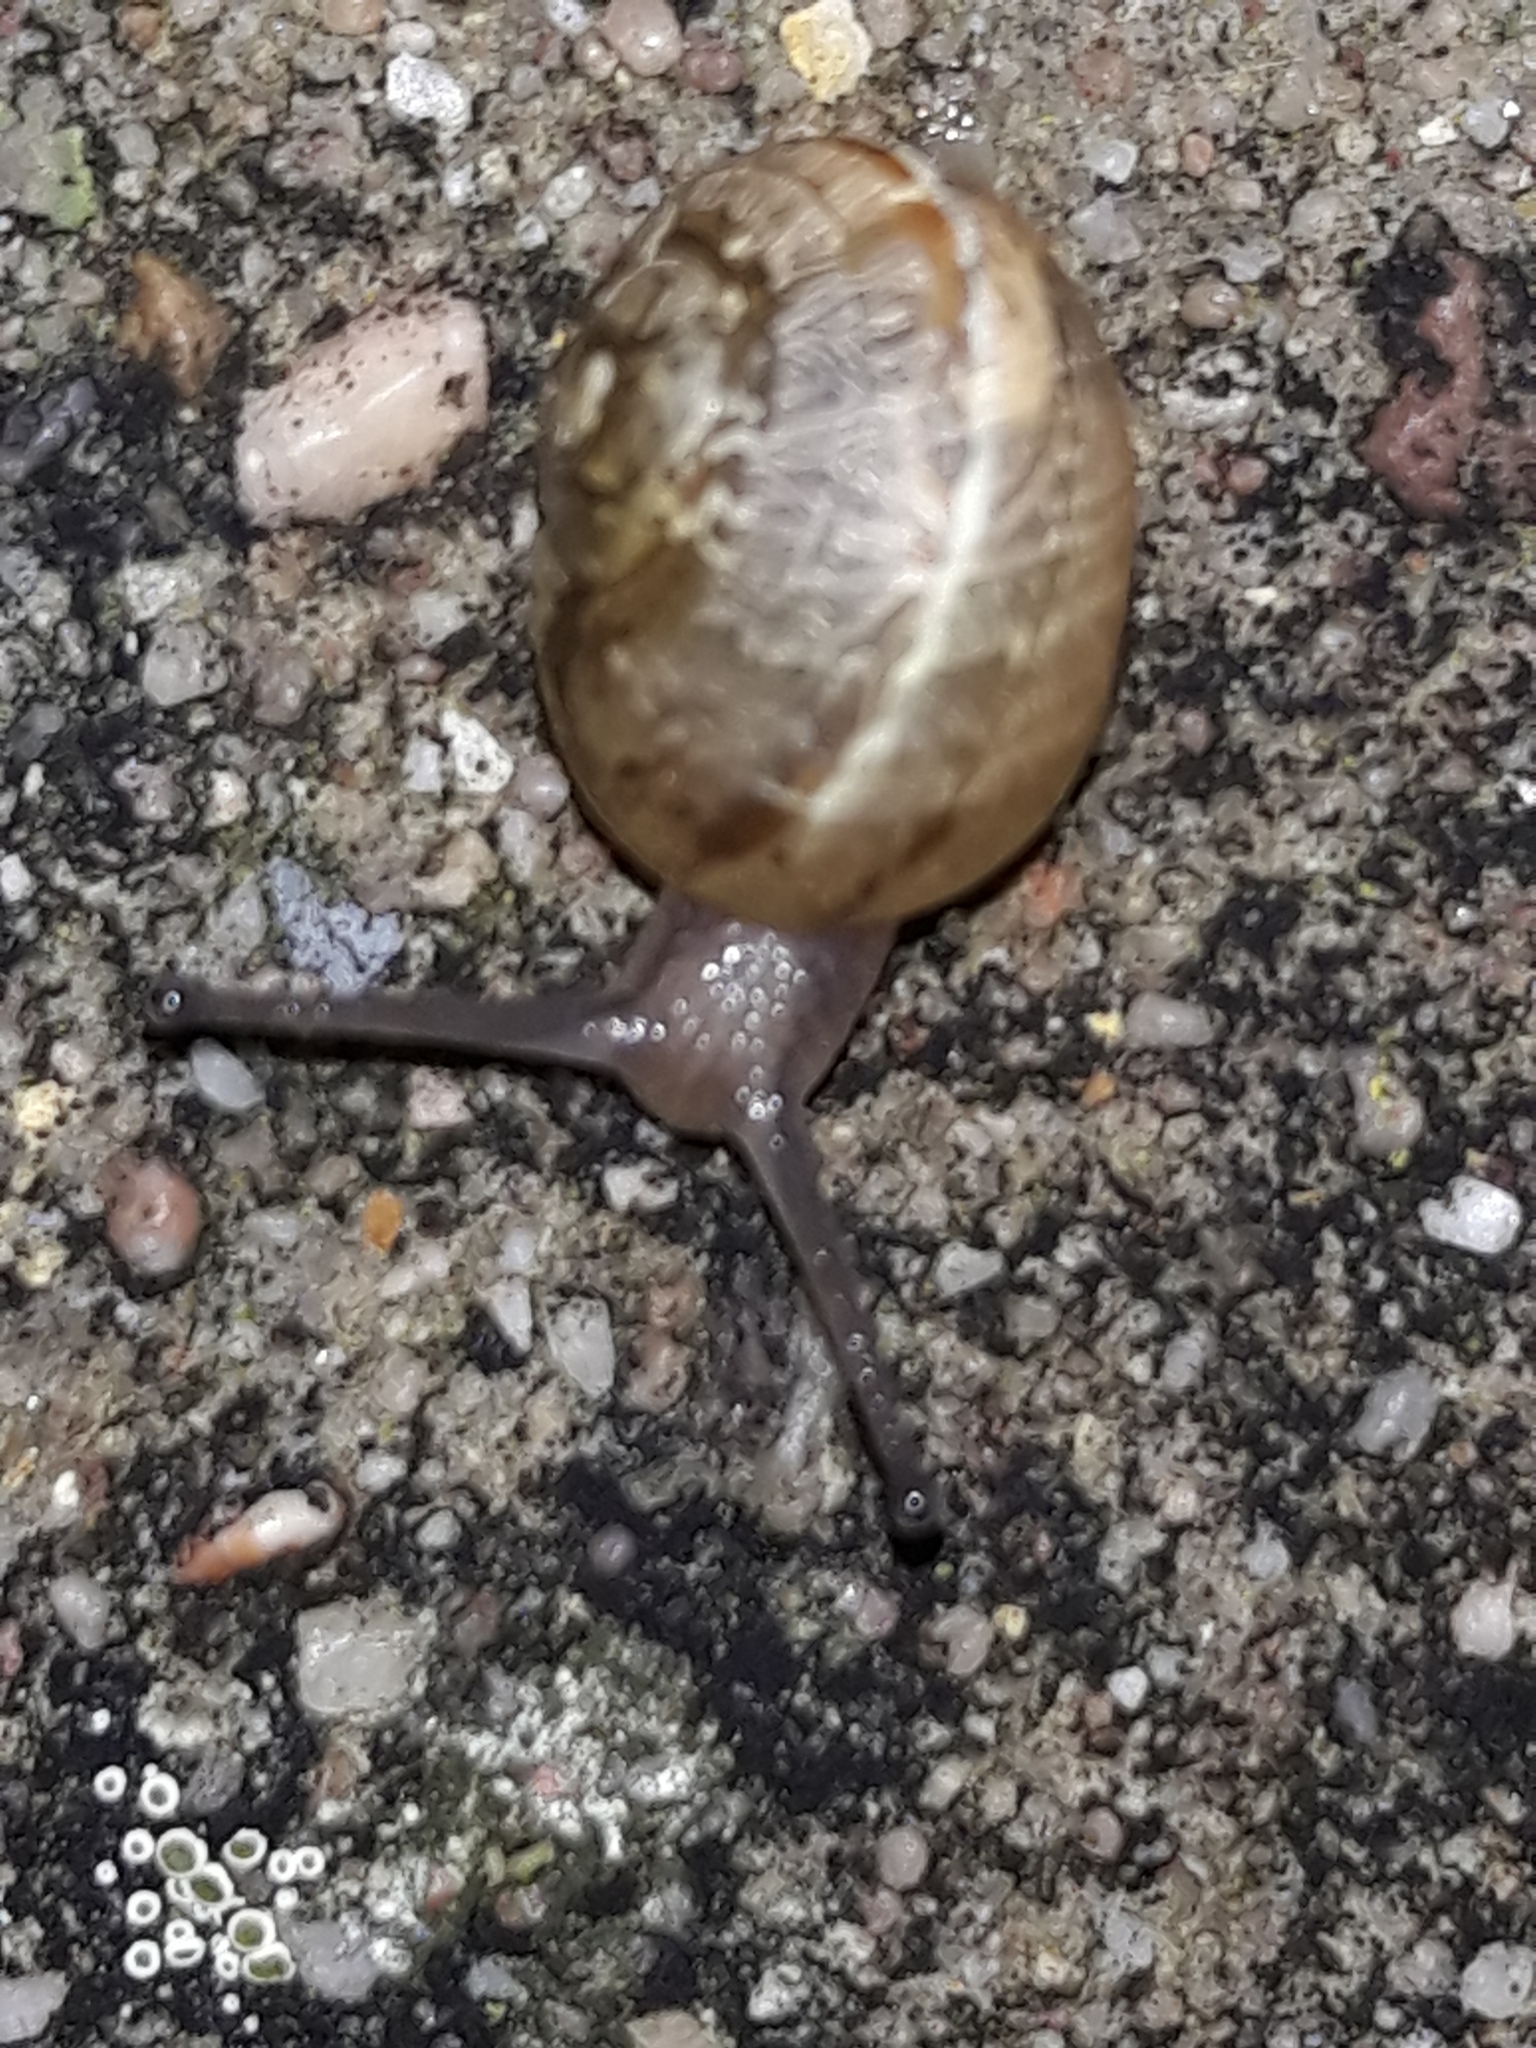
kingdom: Animalia
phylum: Mollusca
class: Gastropoda
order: Stylommatophora
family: Helicidae
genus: Cornu
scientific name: Cornu aspersum
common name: Brown garden snail
